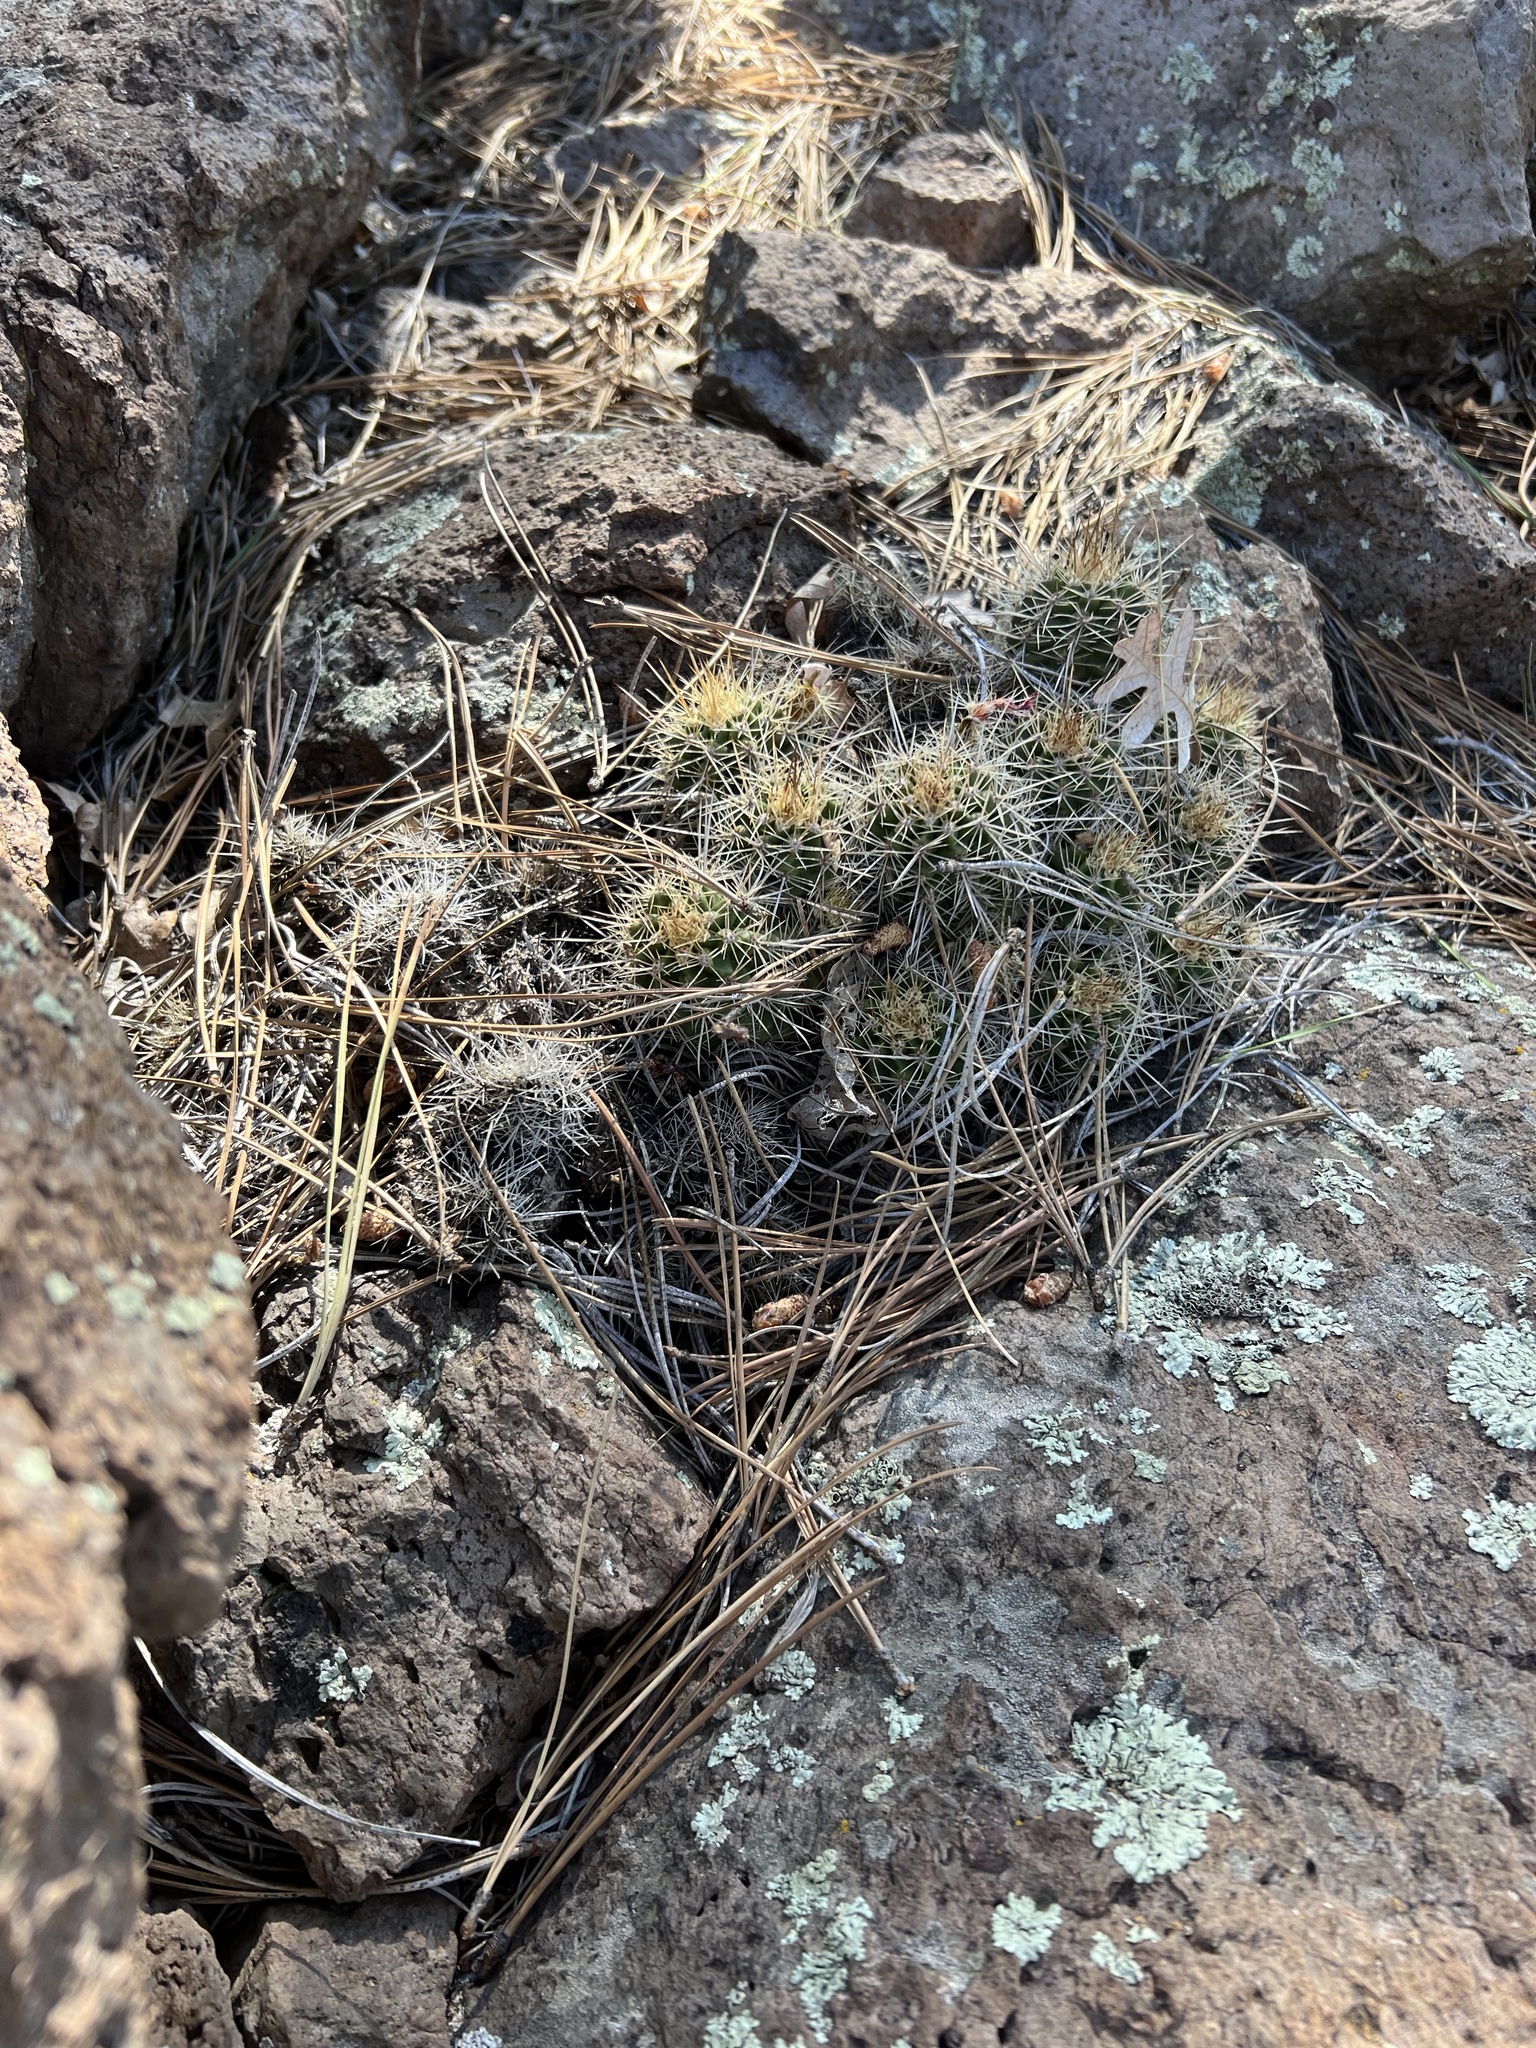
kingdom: Plantae
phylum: Tracheophyta
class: Magnoliopsida
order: Caryophyllales
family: Cactaceae
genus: Echinocereus
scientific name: Echinocereus bakeri
